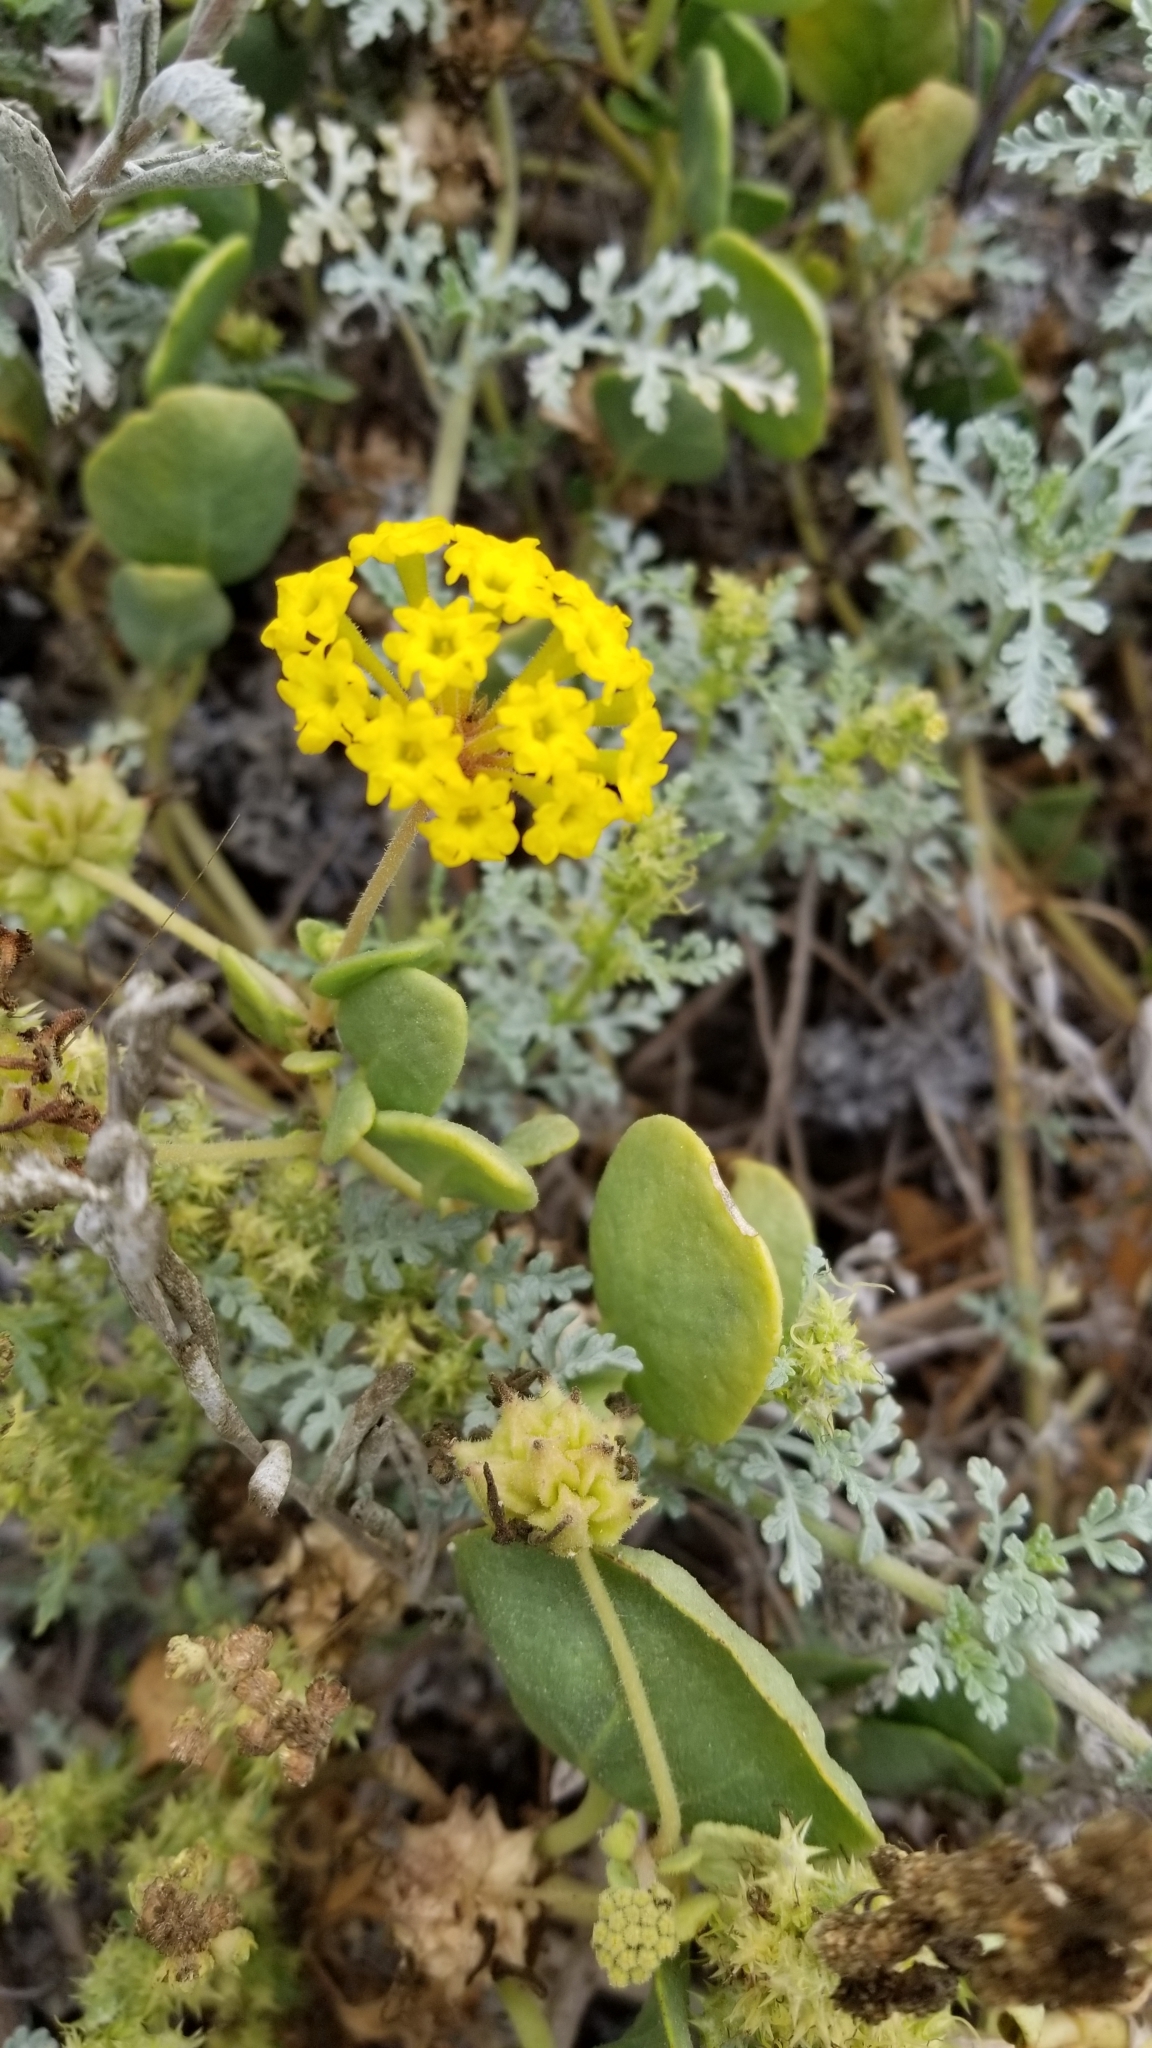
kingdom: Plantae
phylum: Tracheophyta
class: Magnoliopsida
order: Caryophyllales
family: Nyctaginaceae
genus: Abronia
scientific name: Abronia latifolia
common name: Yellow sand-verbena
